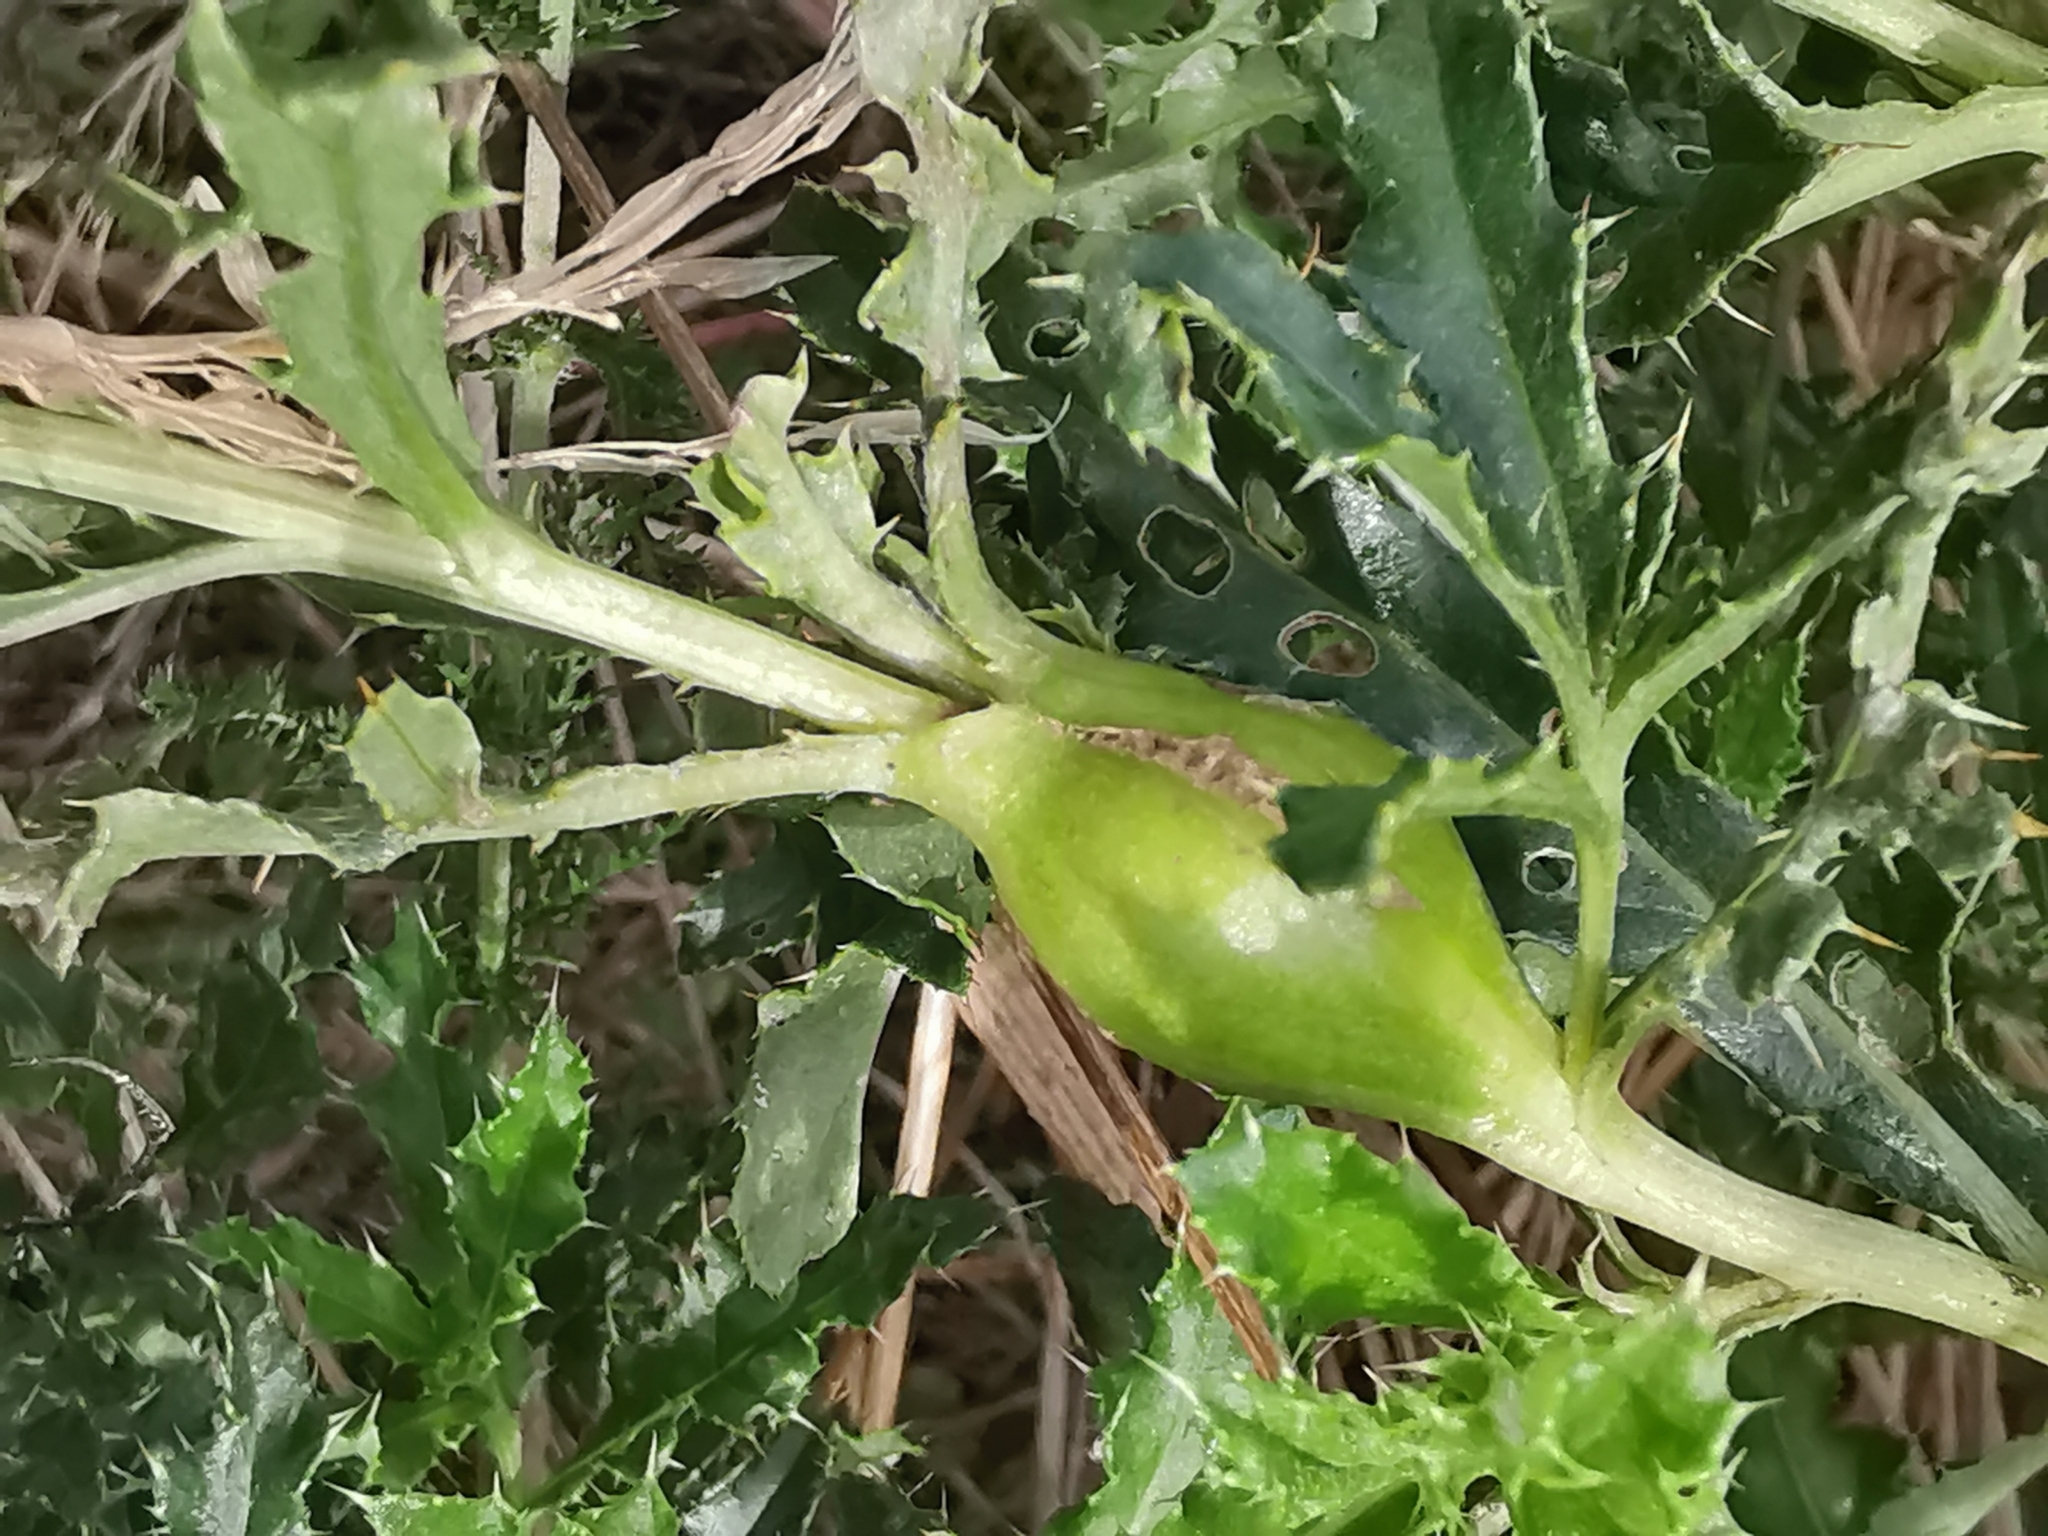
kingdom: Animalia
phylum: Arthropoda
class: Insecta
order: Diptera
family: Tephritidae
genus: Urophora
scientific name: Urophora cardui
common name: Fruit fly
